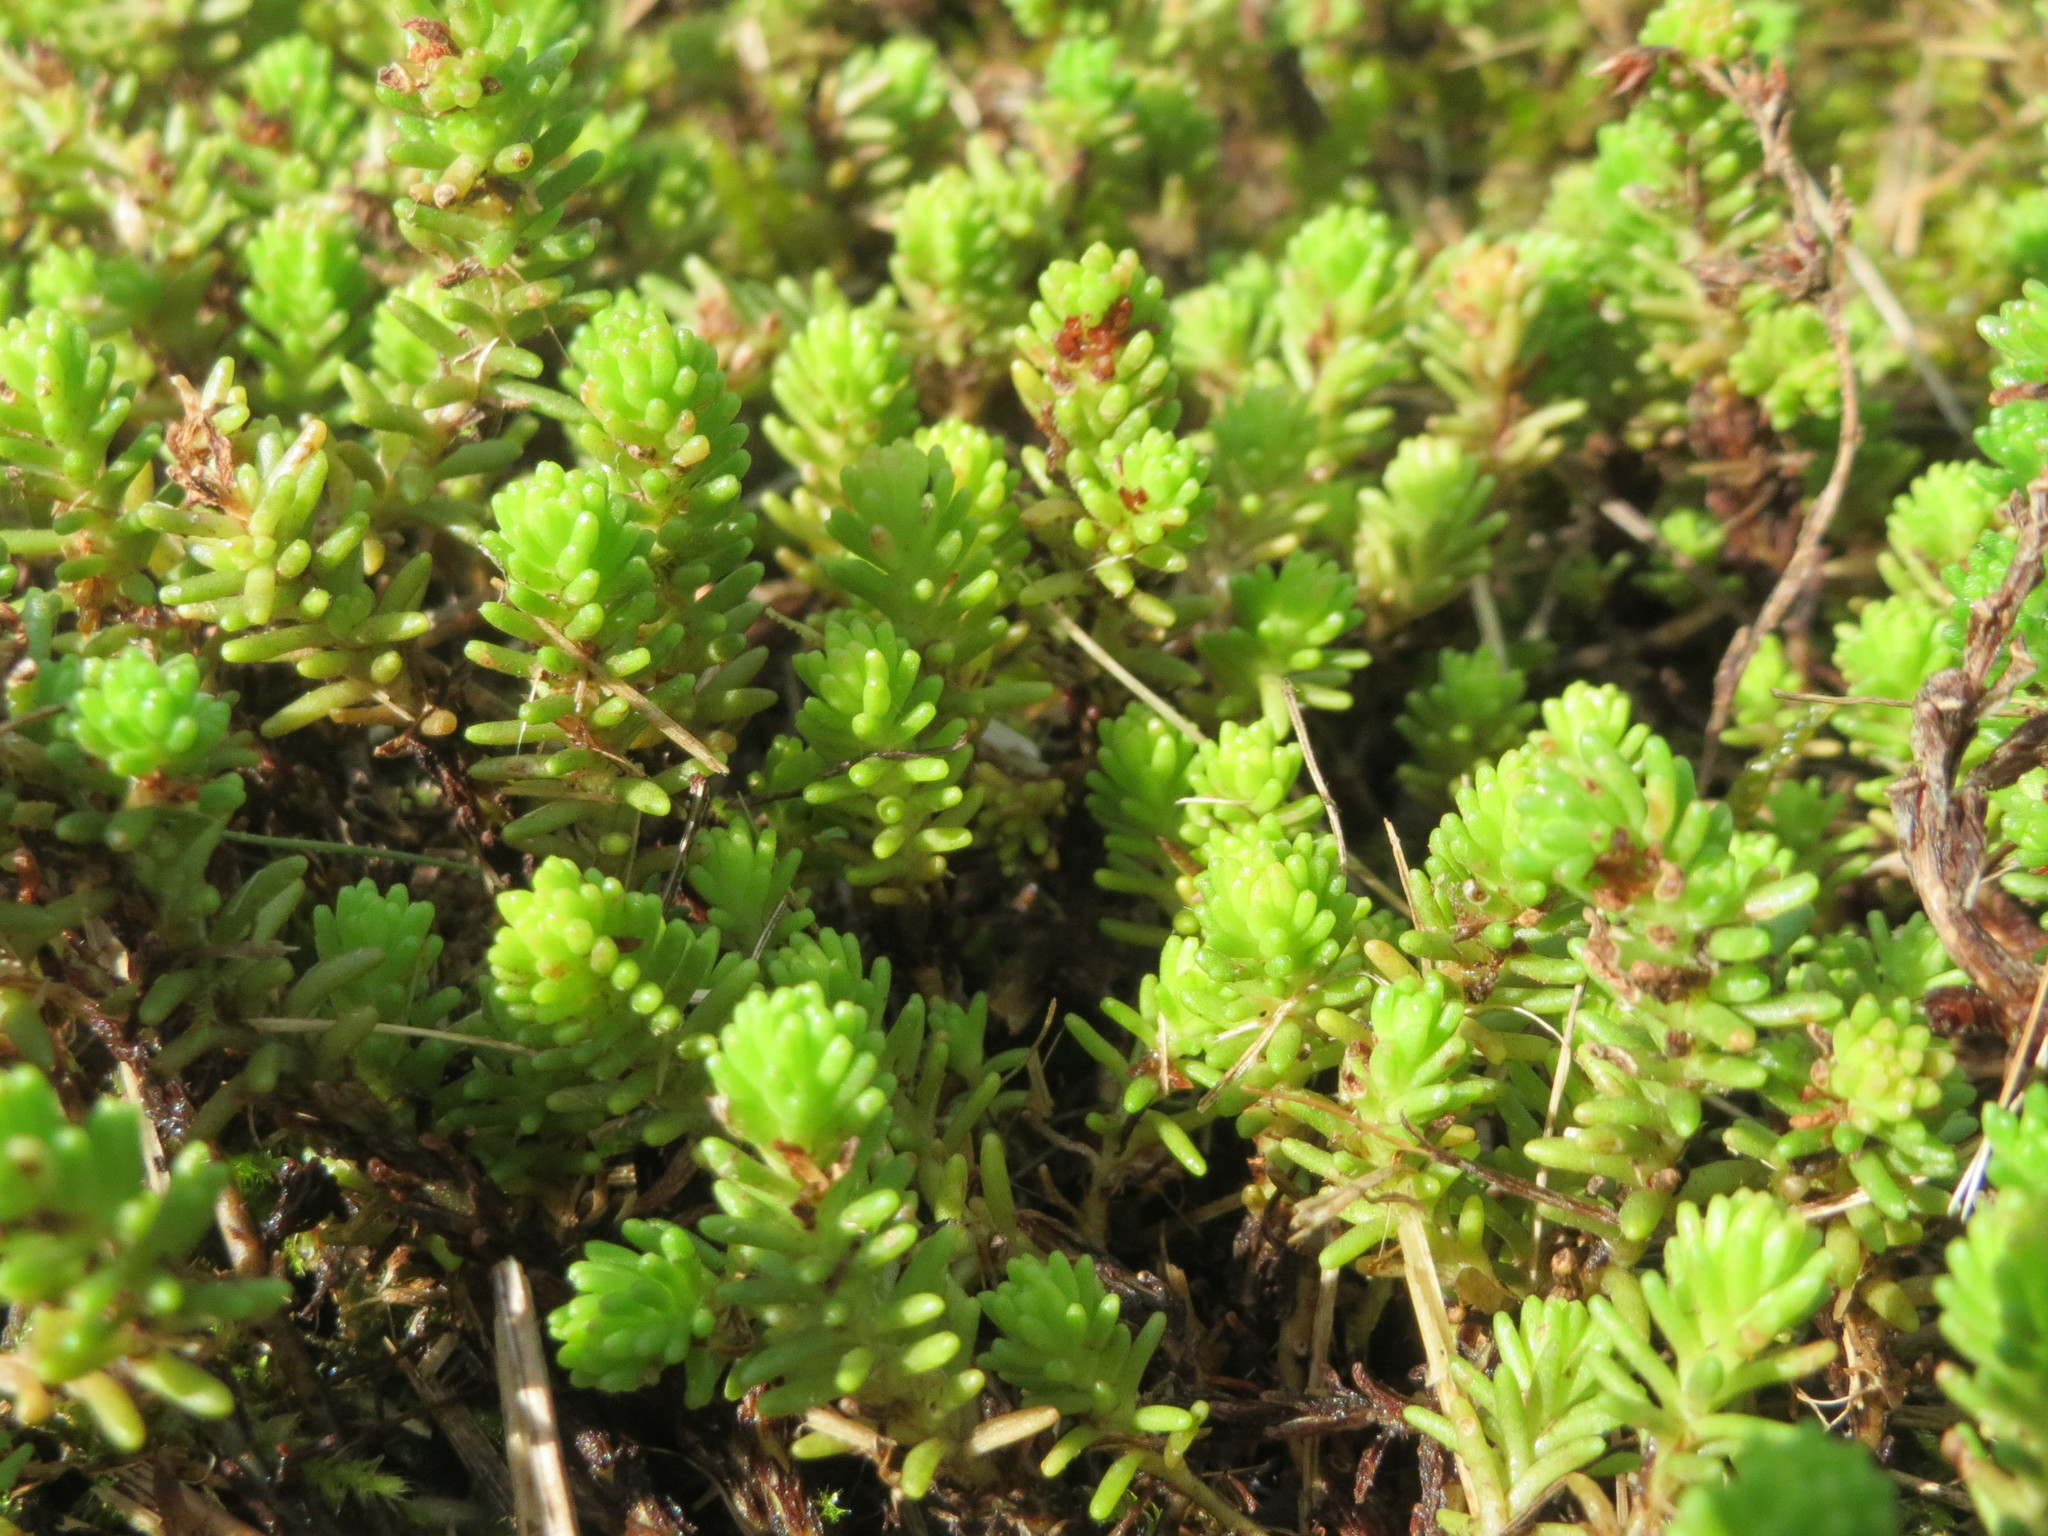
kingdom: Plantae
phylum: Tracheophyta
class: Magnoliopsida
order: Saxifragales
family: Crassulaceae
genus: Sedum
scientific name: Sedum sexangulare
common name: Tasteless stonecrop
